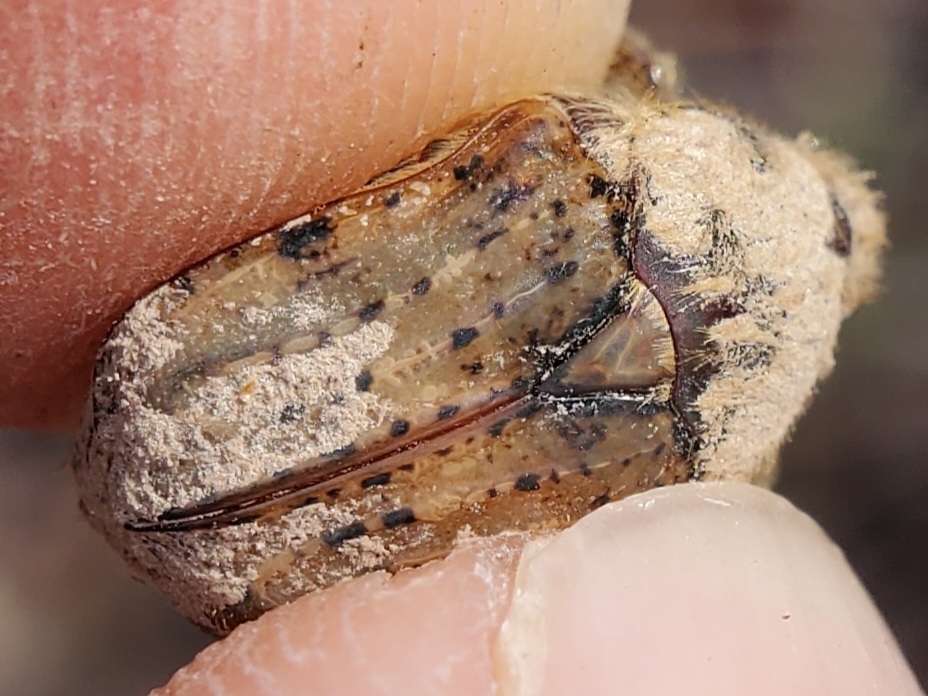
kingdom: Animalia
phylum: Arthropoda
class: Insecta
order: Coleoptera
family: Scarabaeidae
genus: Euphoria
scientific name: Euphoria inda
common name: Bumble flower beetle
